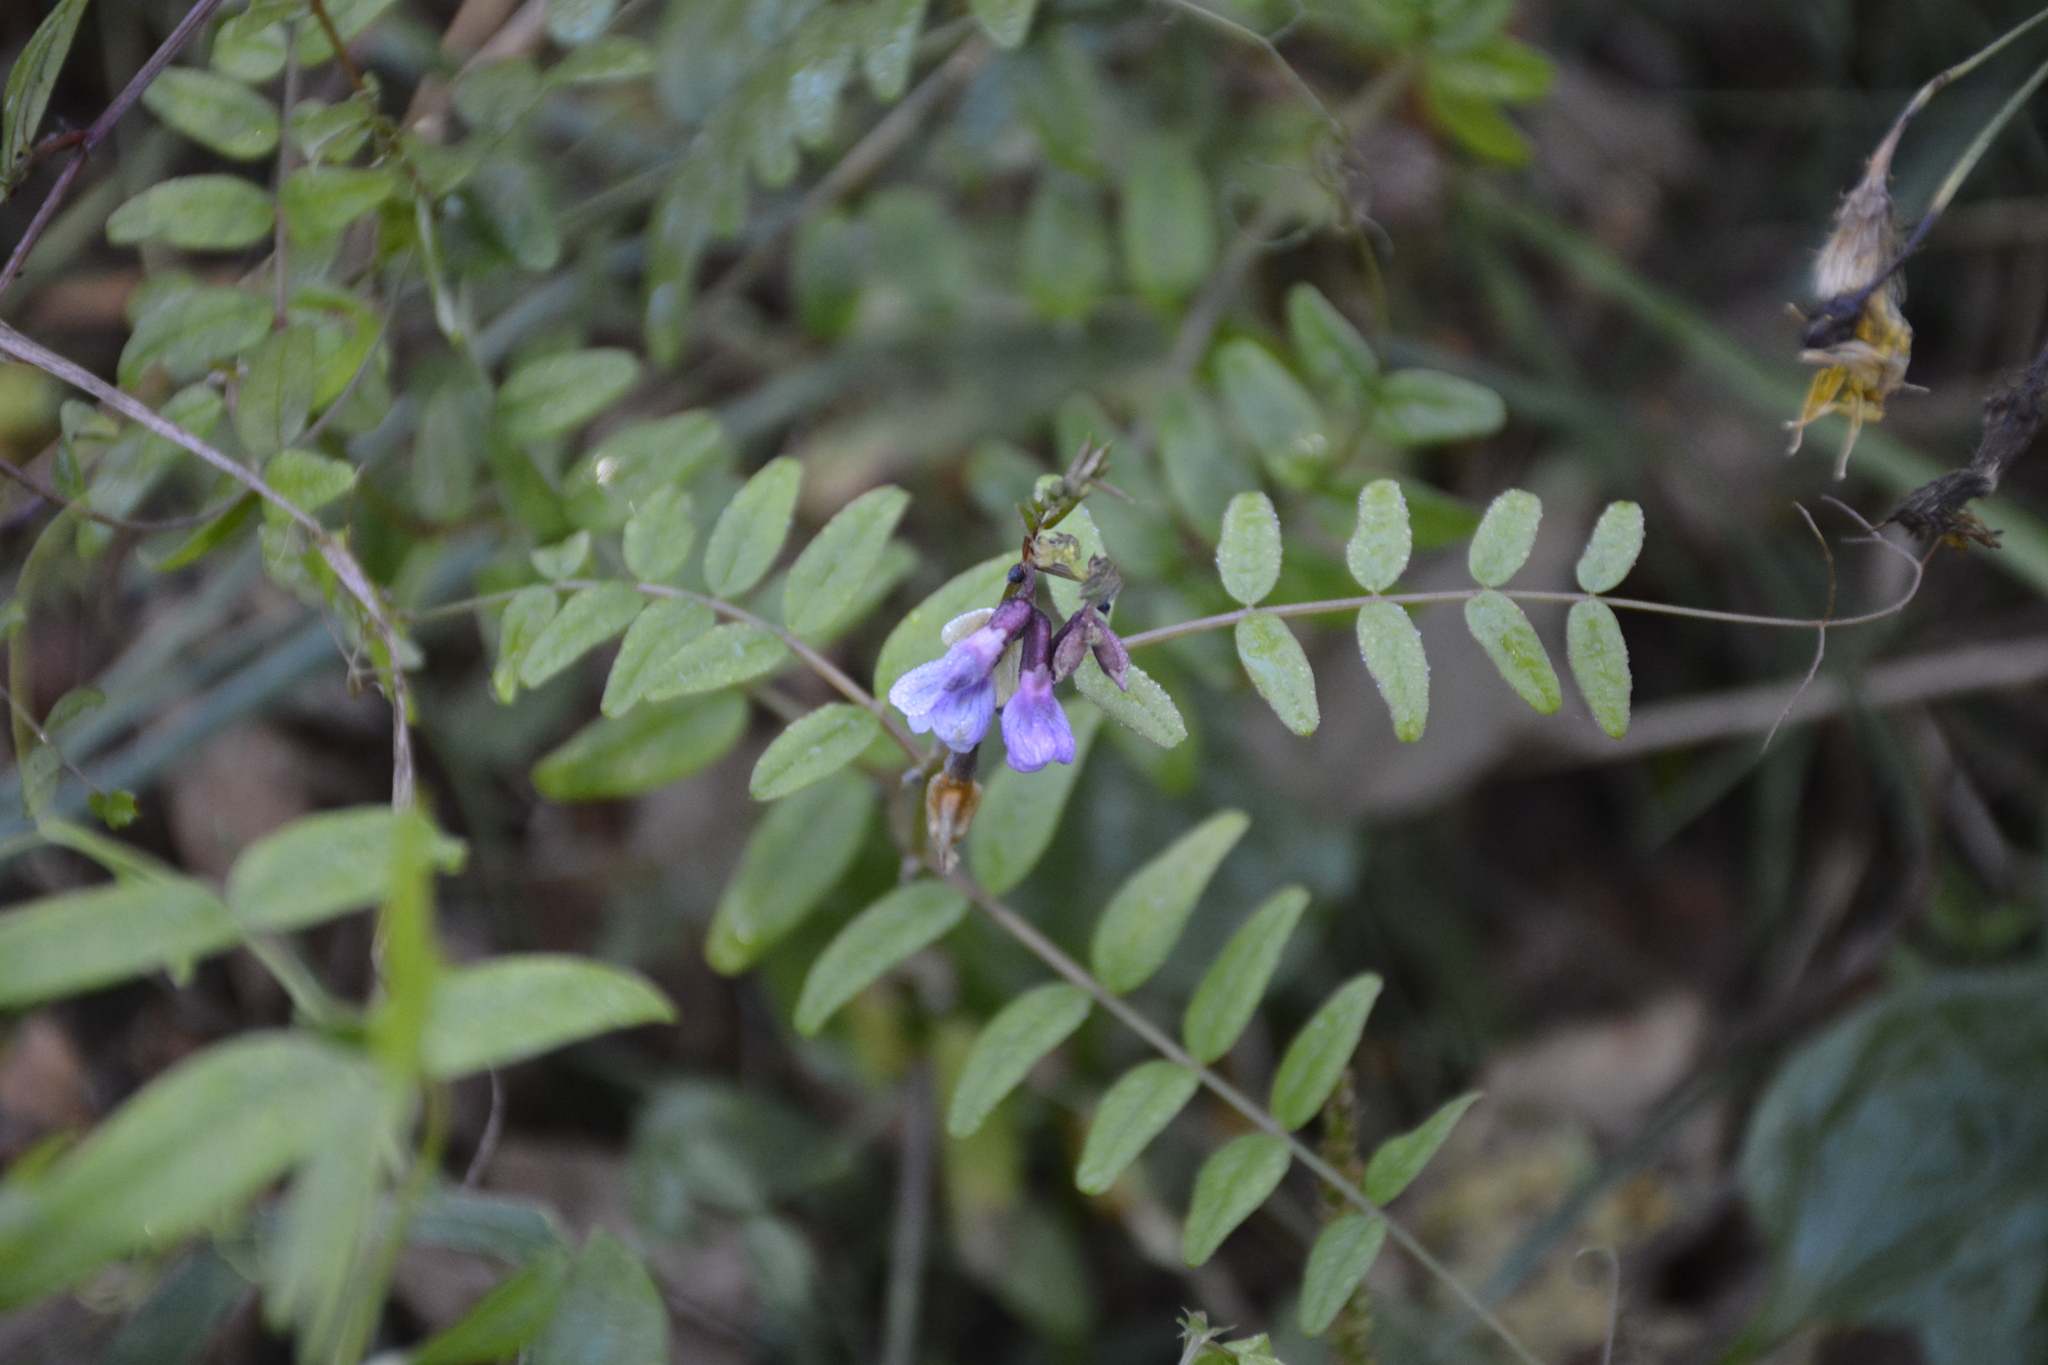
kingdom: Plantae
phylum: Tracheophyta
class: Magnoliopsida
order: Fabales
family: Fabaceae
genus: Vicia
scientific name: Vicia sepium
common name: Bush vetch
